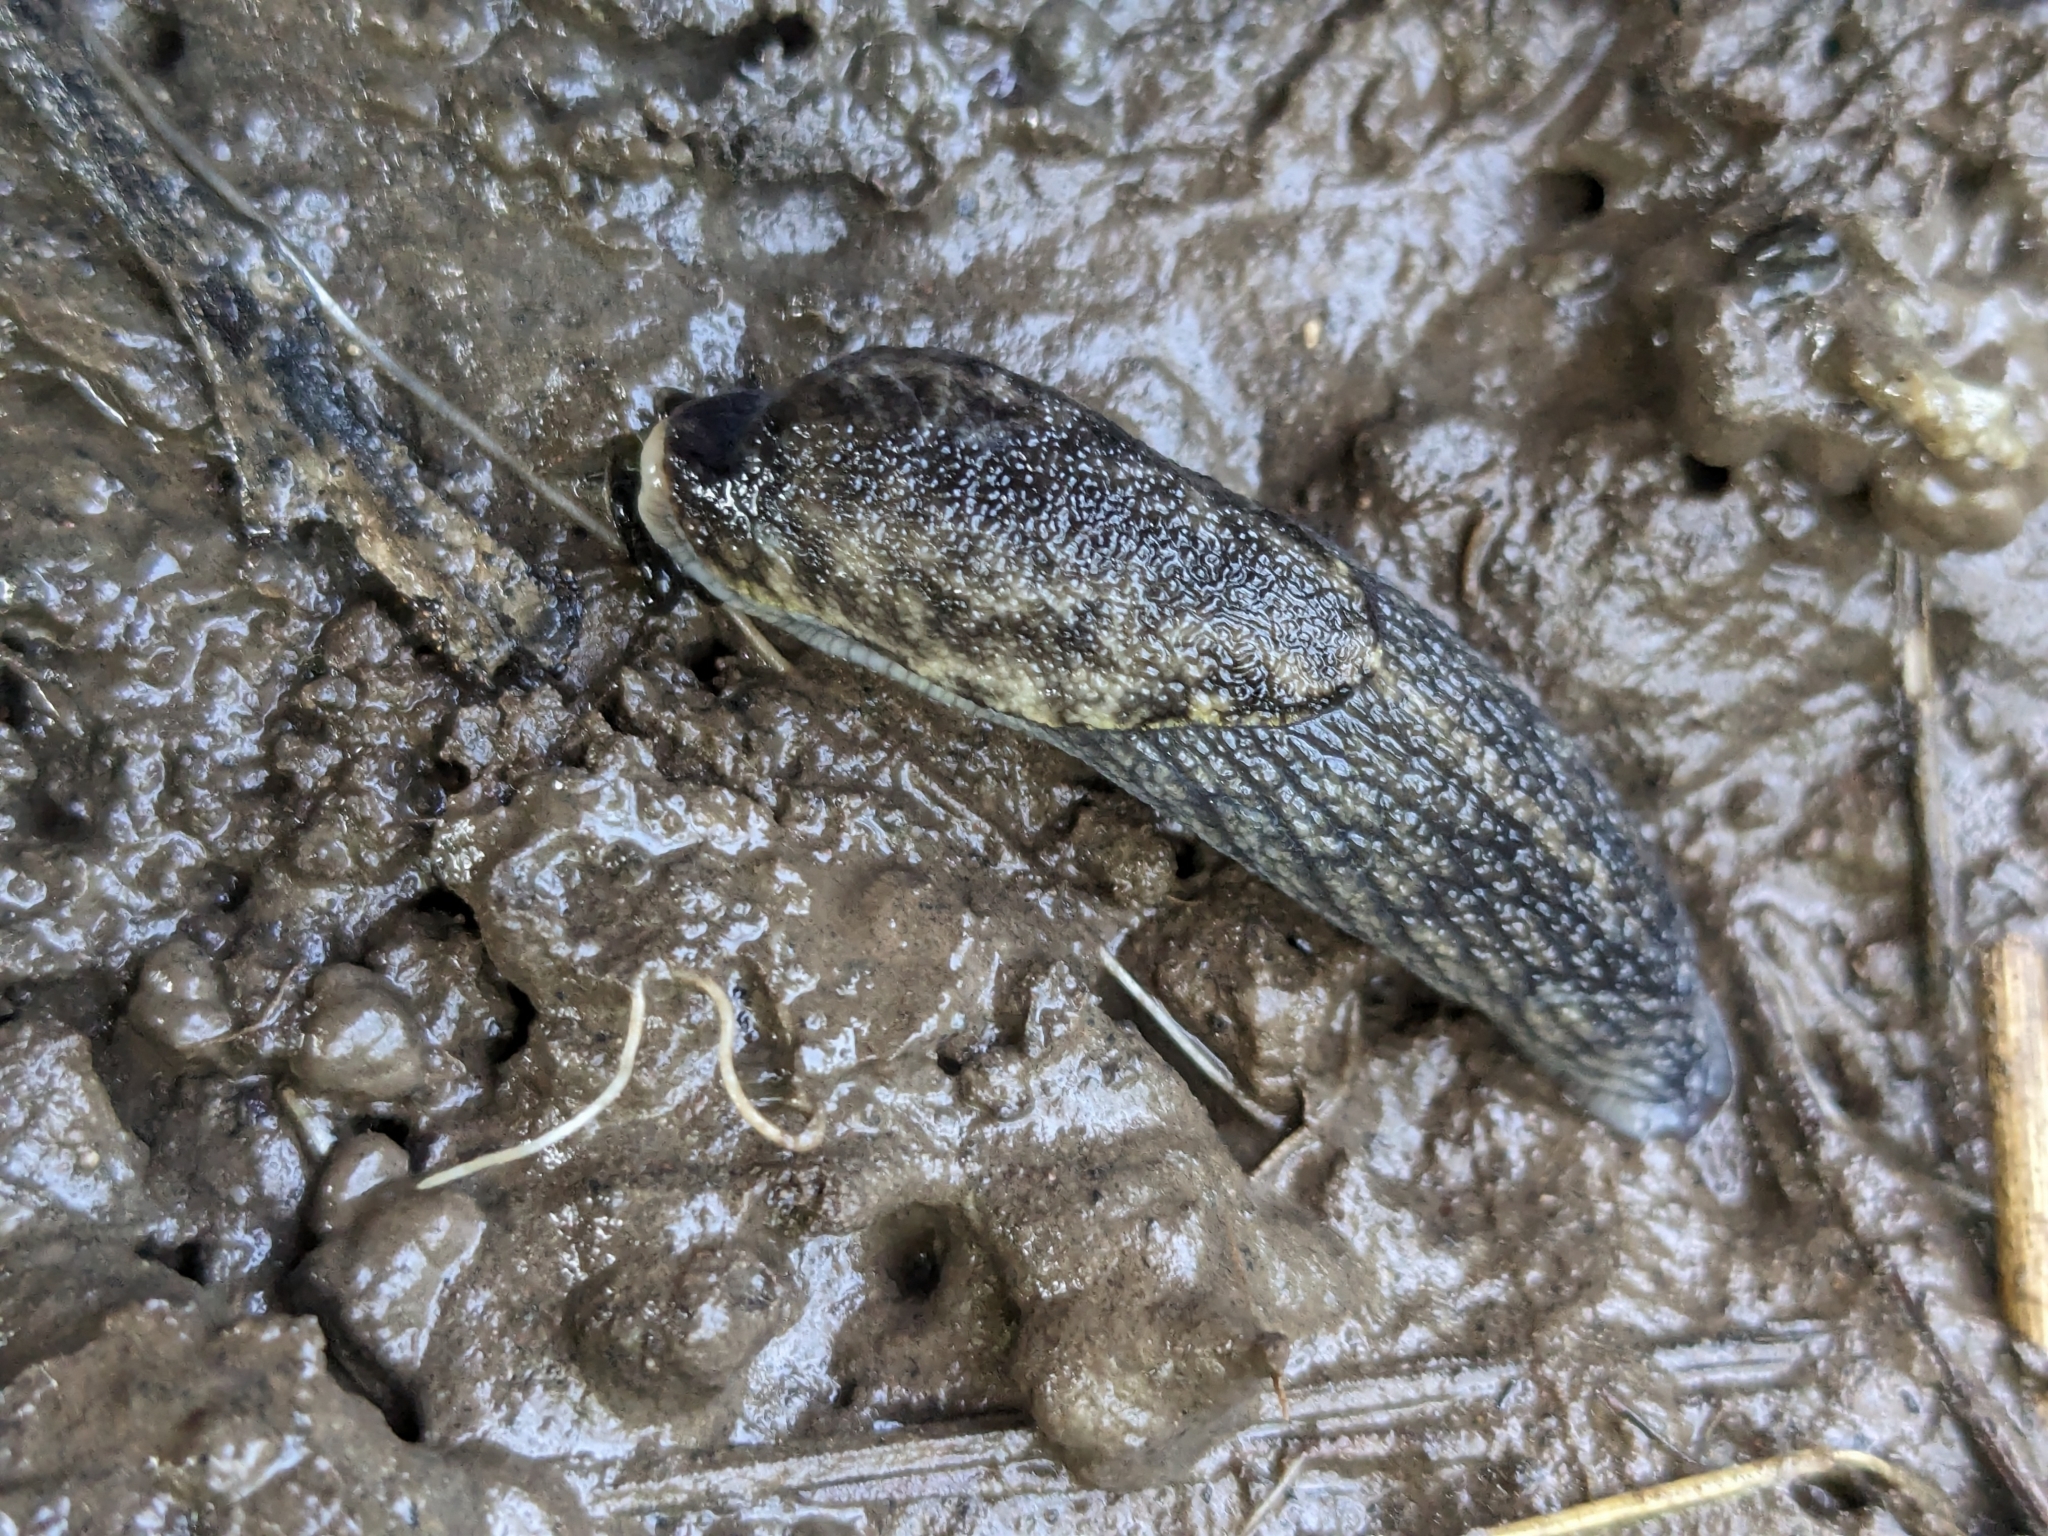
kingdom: Animalia
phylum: Mollusca
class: Gastropoda
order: Stylommatophora
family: Ariolimacidae
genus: Prophysaon
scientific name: Prophysaon andersonii
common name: Reticulate taildropper
